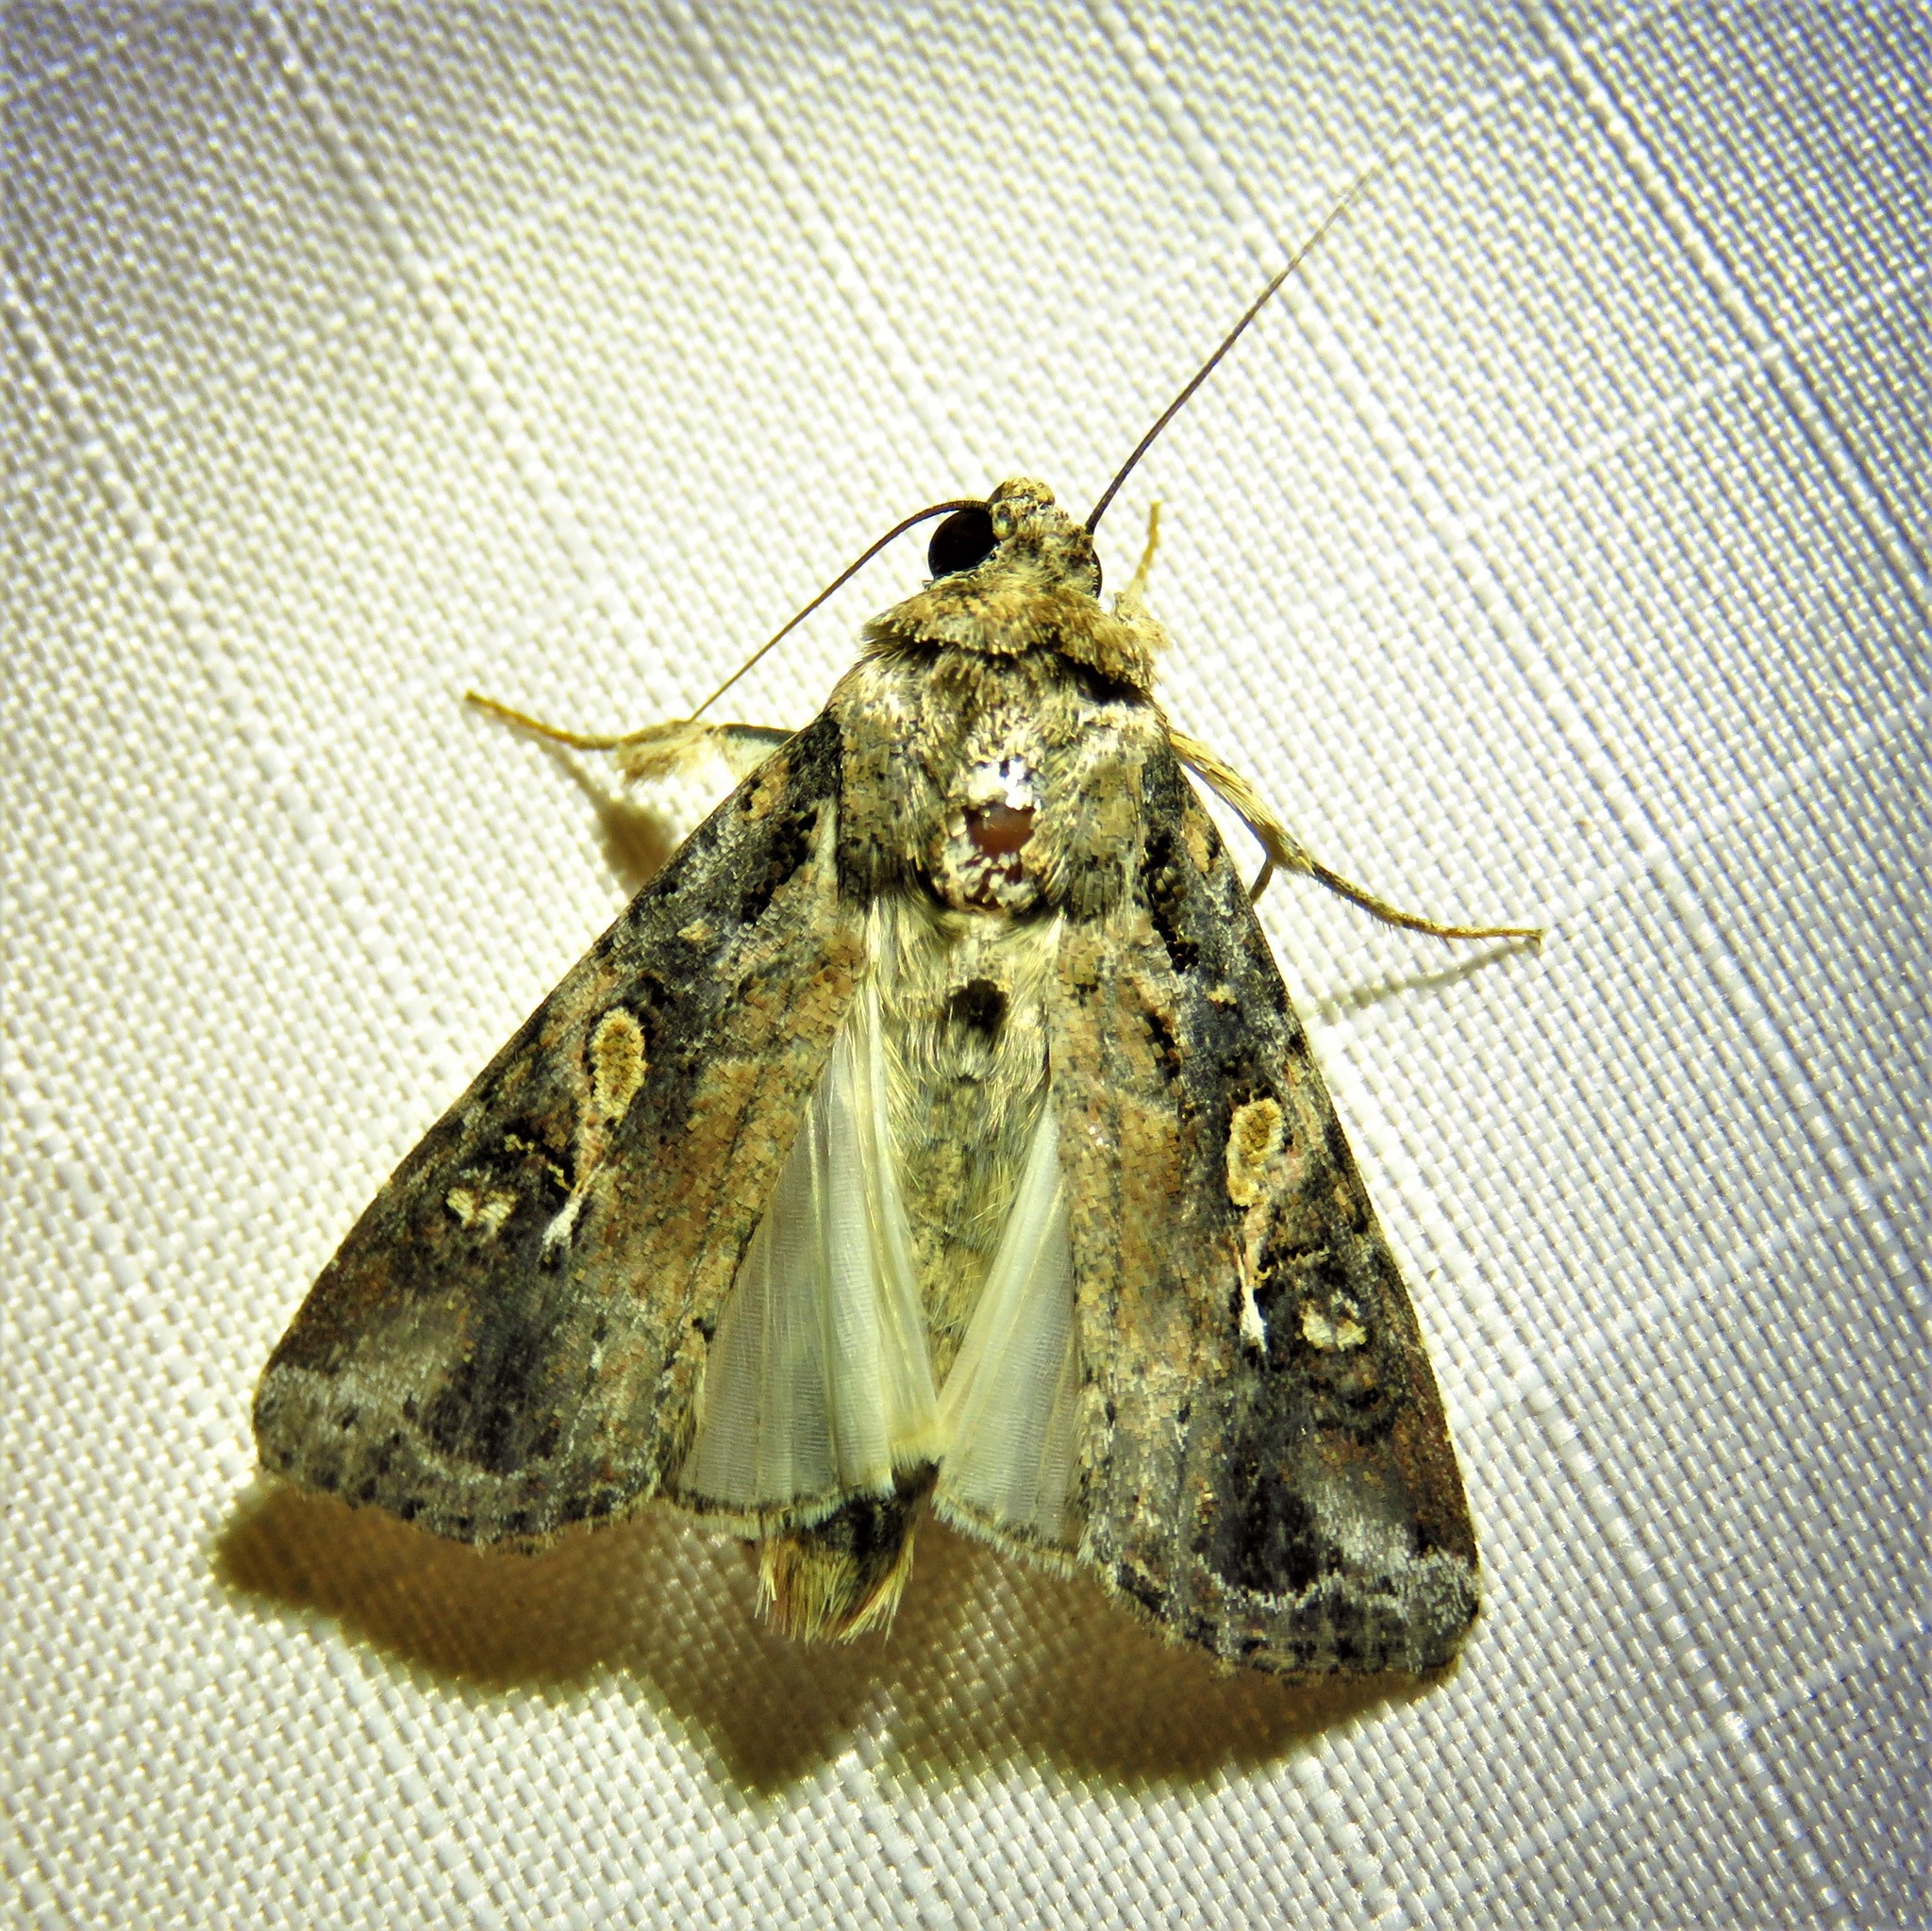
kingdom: Animalia
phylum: Arthropoda
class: Insecta
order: Lepidoptera
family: Noctuidae
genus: Spodoptera
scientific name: Spodoptera frugiperda
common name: Fall armyworm
